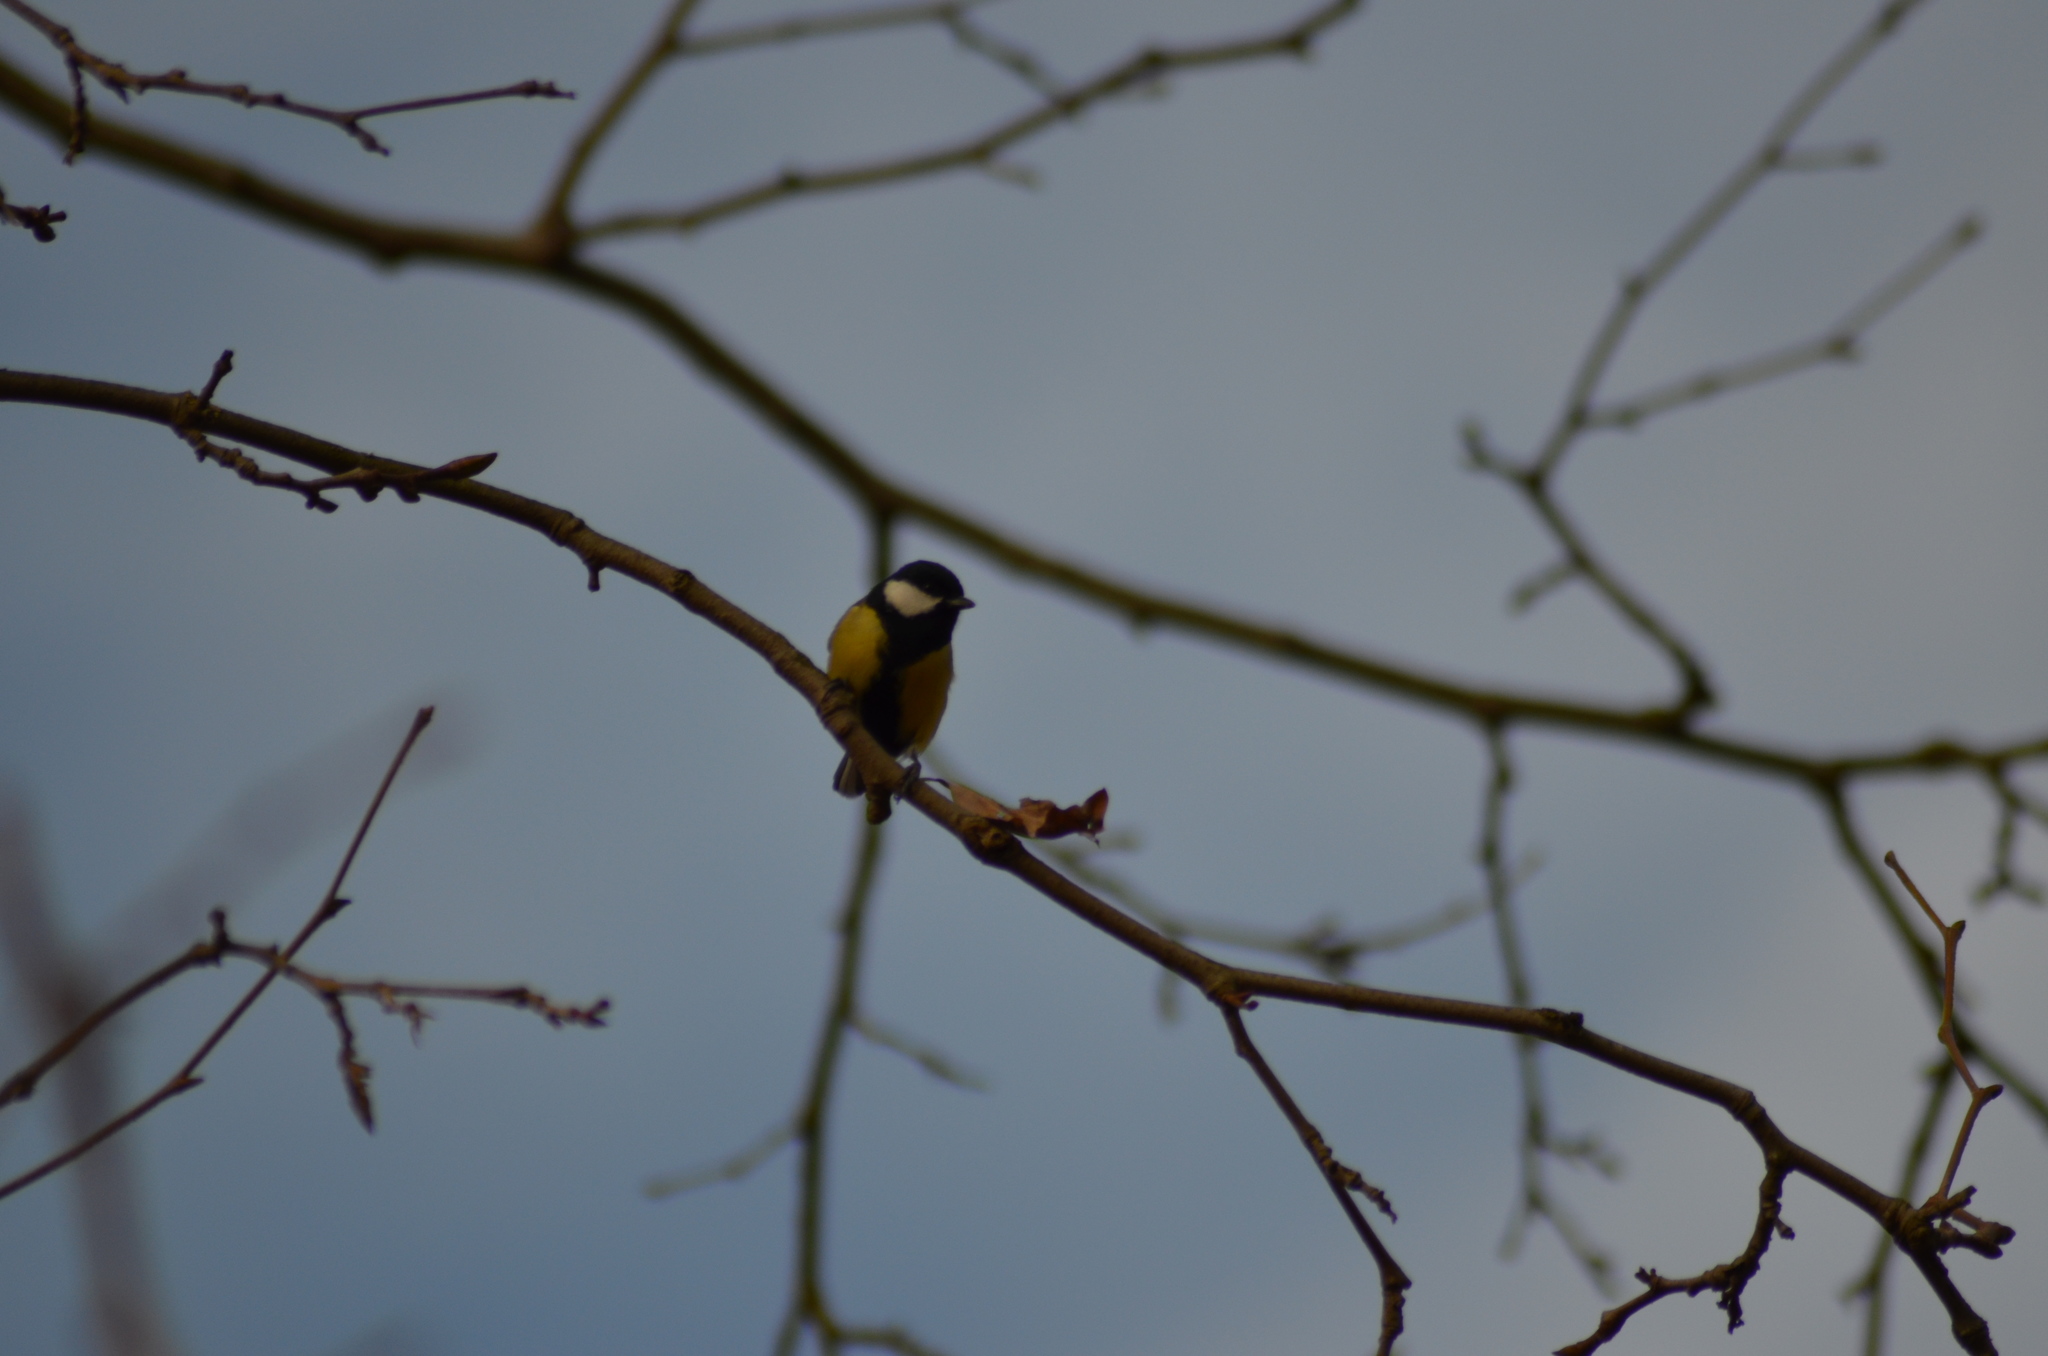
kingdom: Animalia
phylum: Chordata
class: Aves
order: Passeriformes
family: Paridae
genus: Parus
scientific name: Parus major
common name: Great tit
